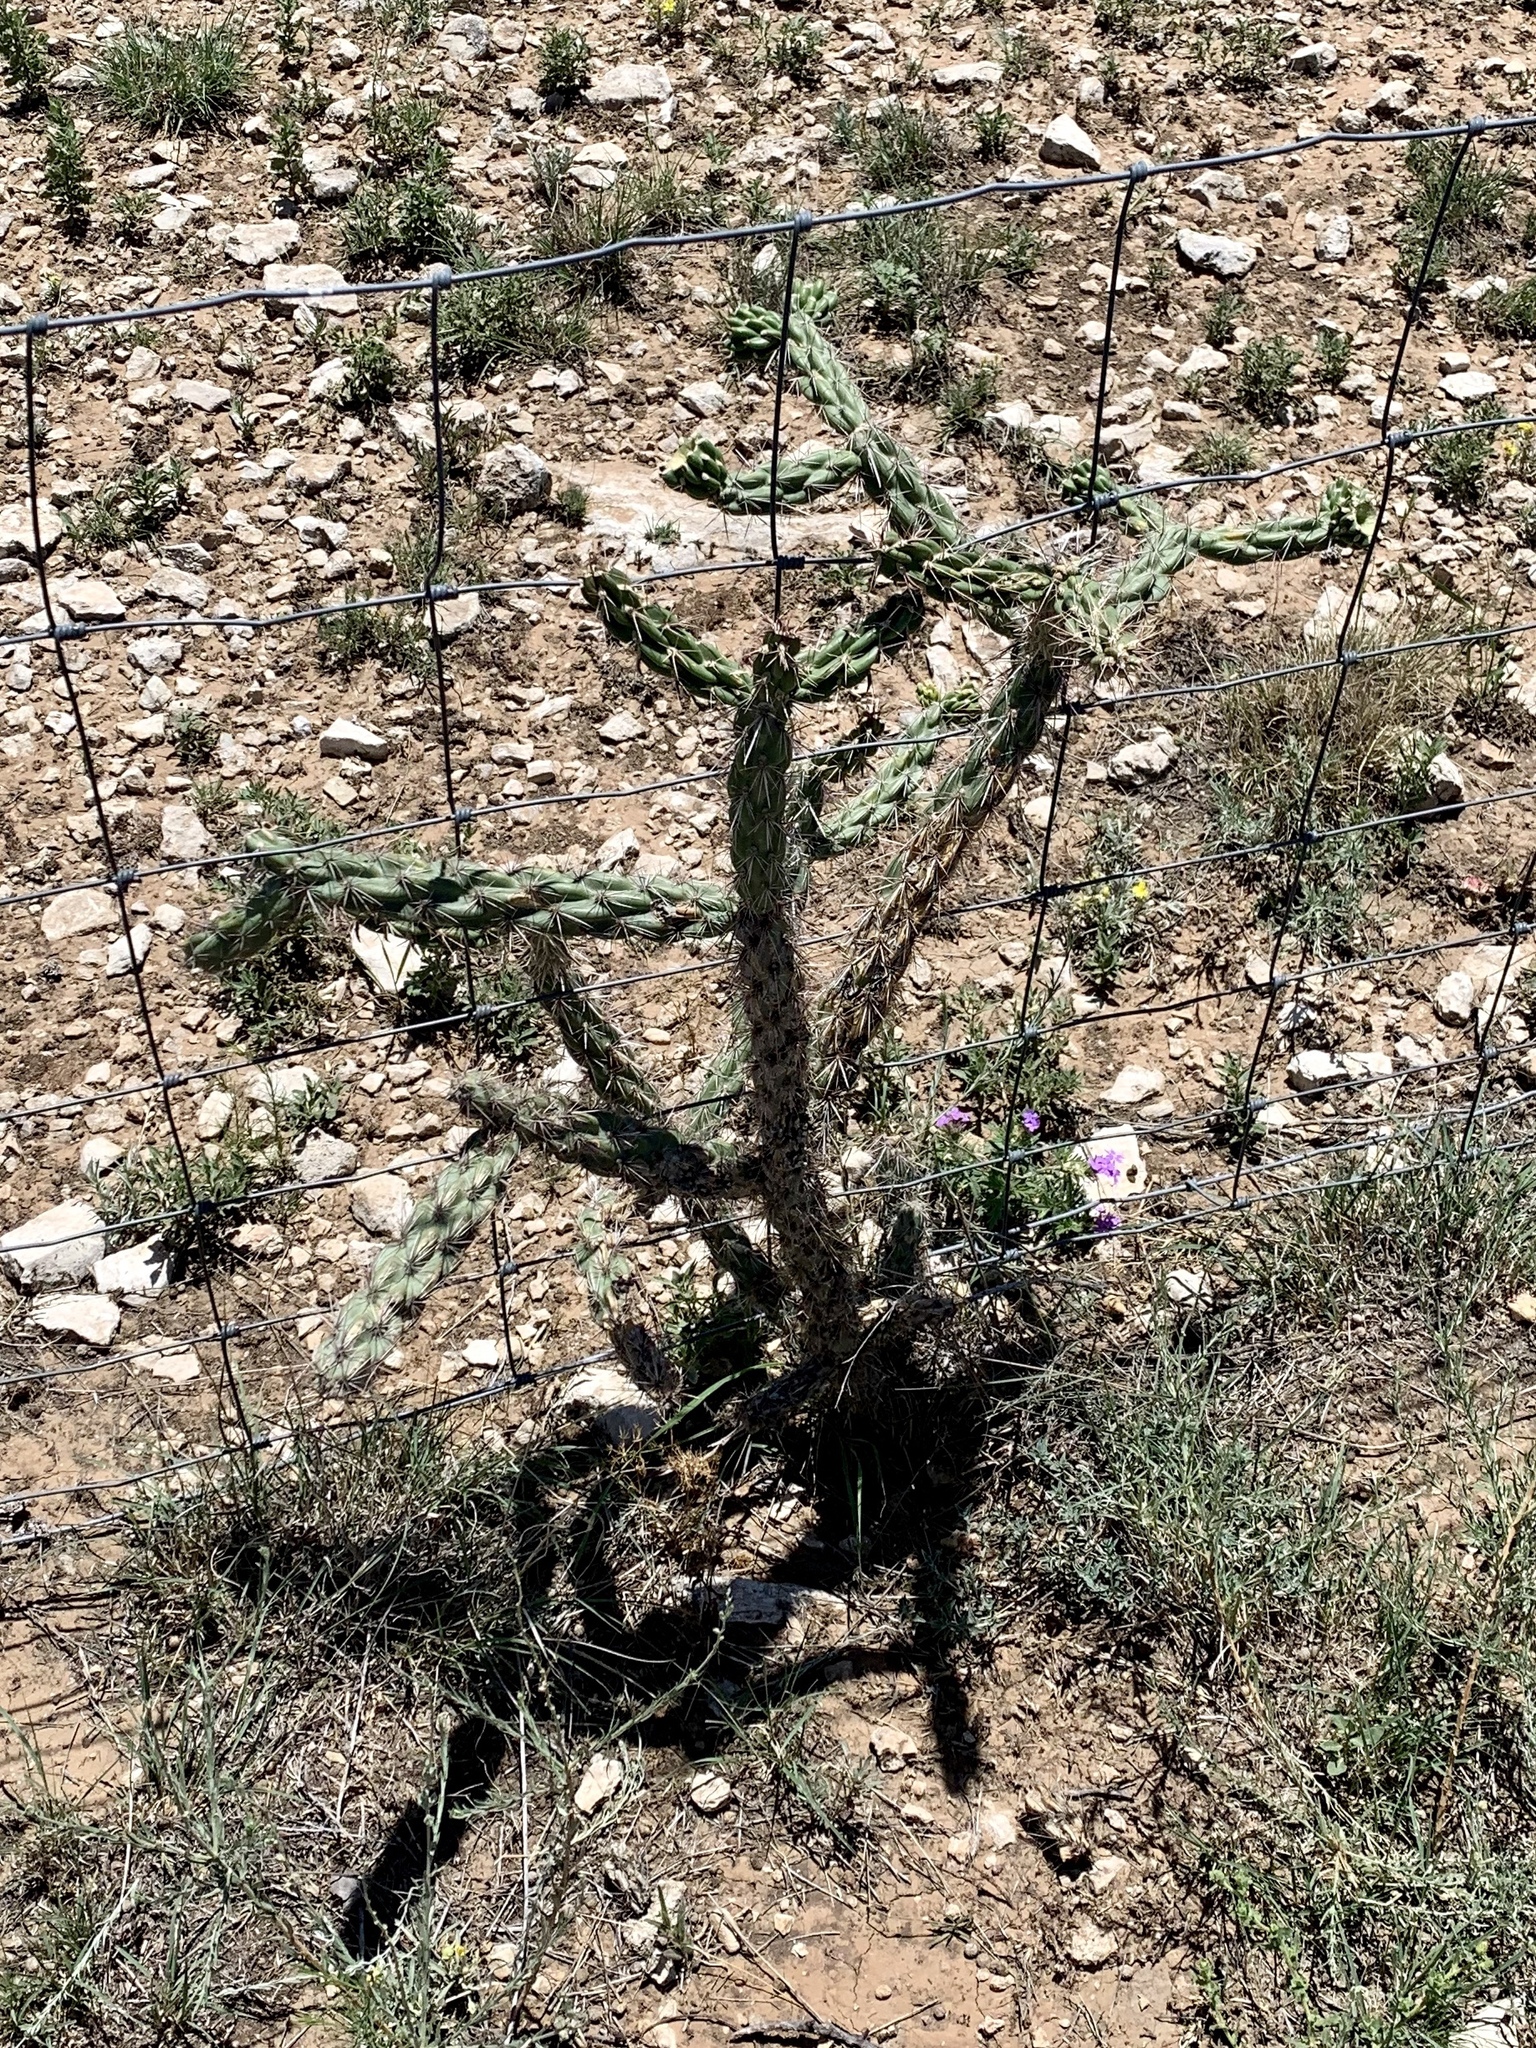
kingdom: Plantae
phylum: Tracheophyta
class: Magnoliopsida
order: Caryophyllales
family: Cactaceae
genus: Cylindropuntia
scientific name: Cylindropuntia imbricata
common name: Candelabrum cactus
